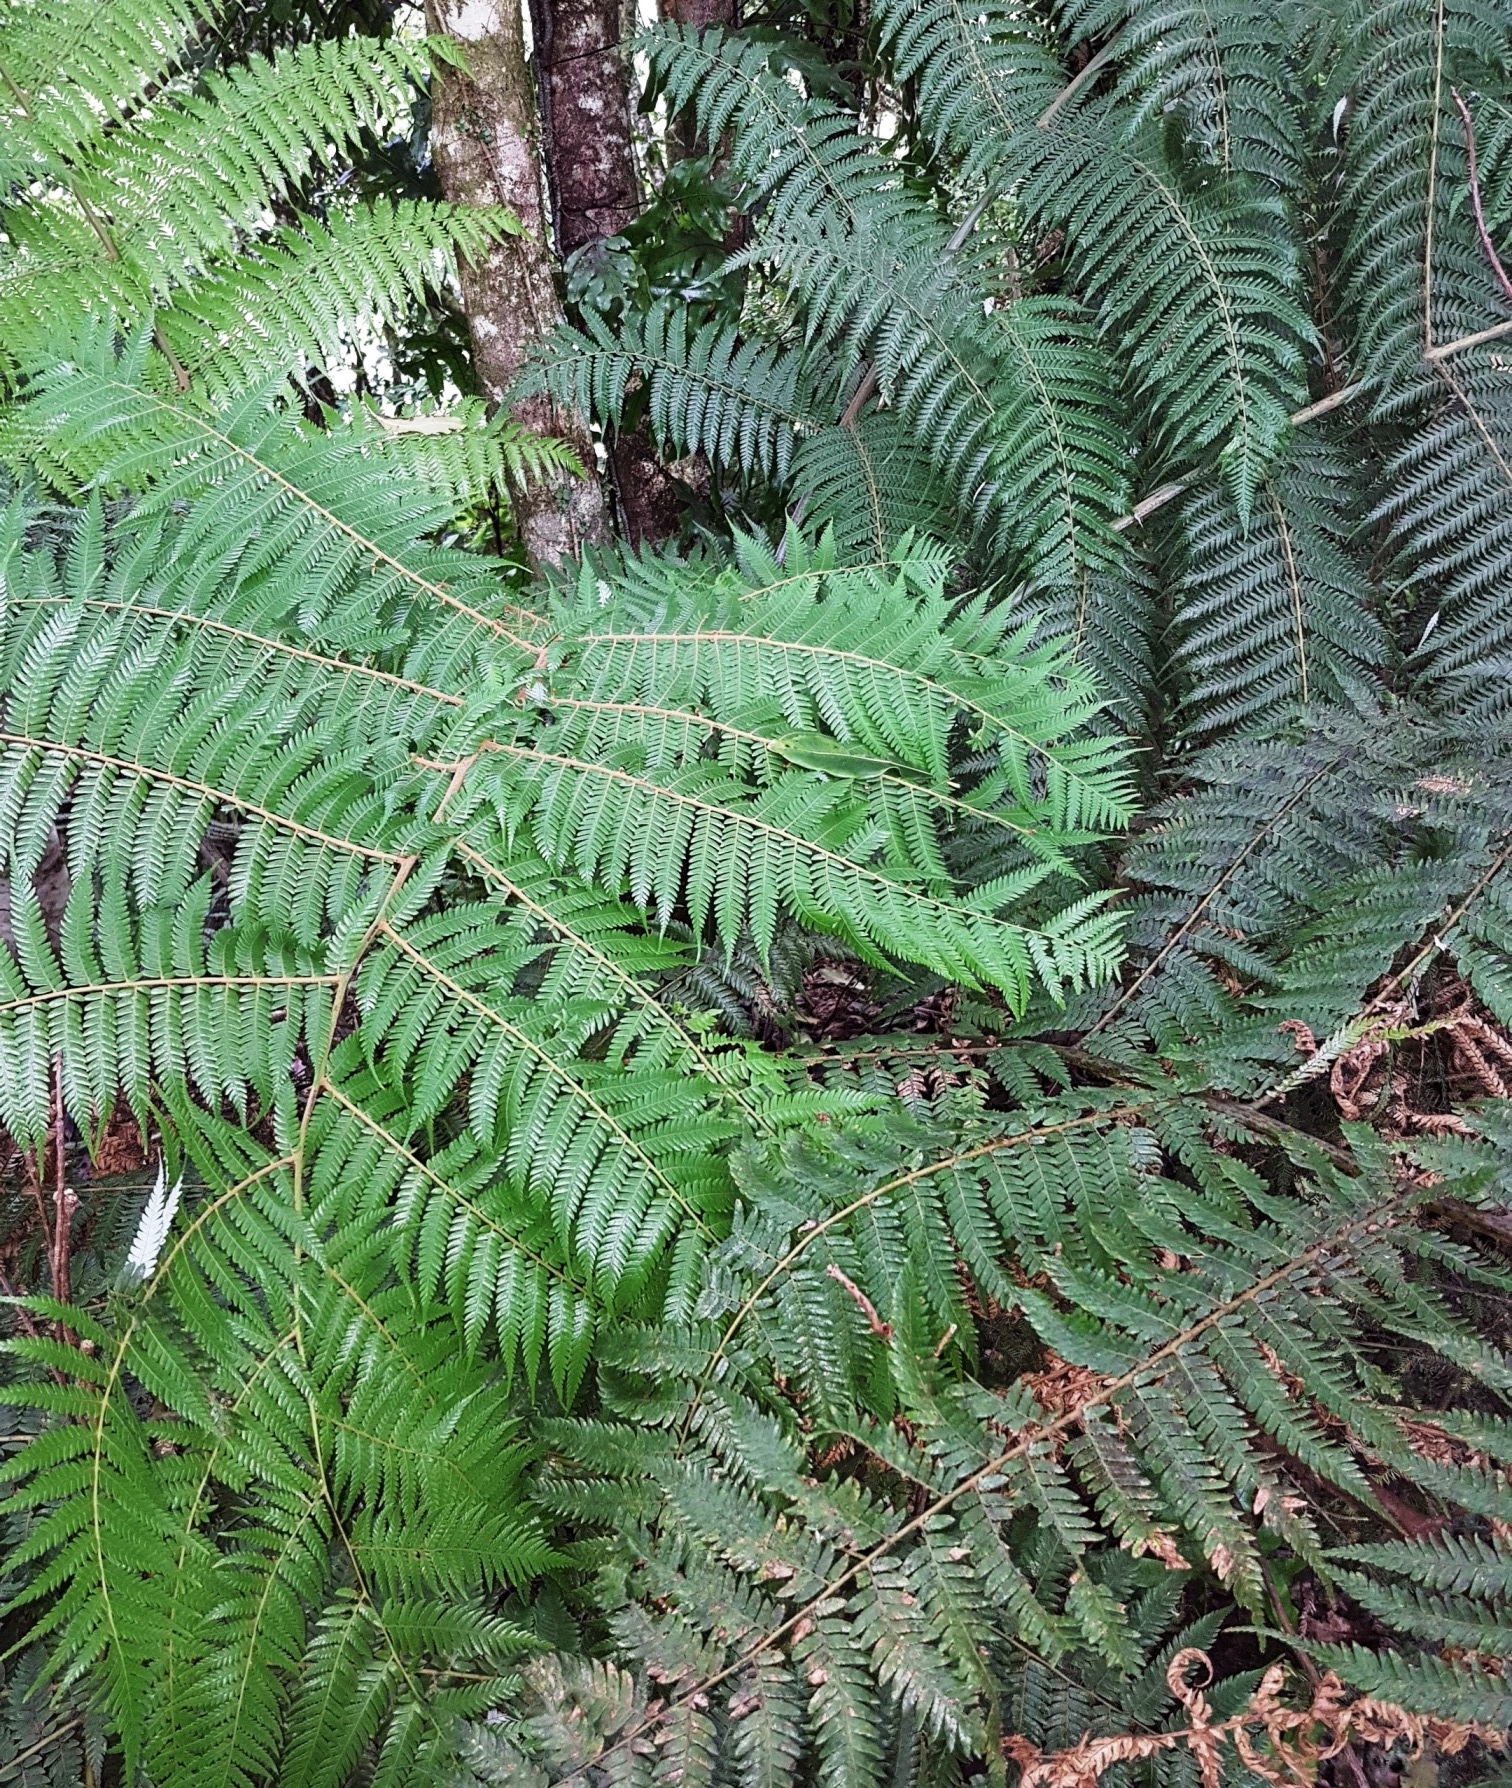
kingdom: Plantae
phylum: Tracheophyta
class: Polypodiopsida
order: Cyatheales
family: Cyatheaceae
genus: Alsophila
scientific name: Alsophila dealbata
